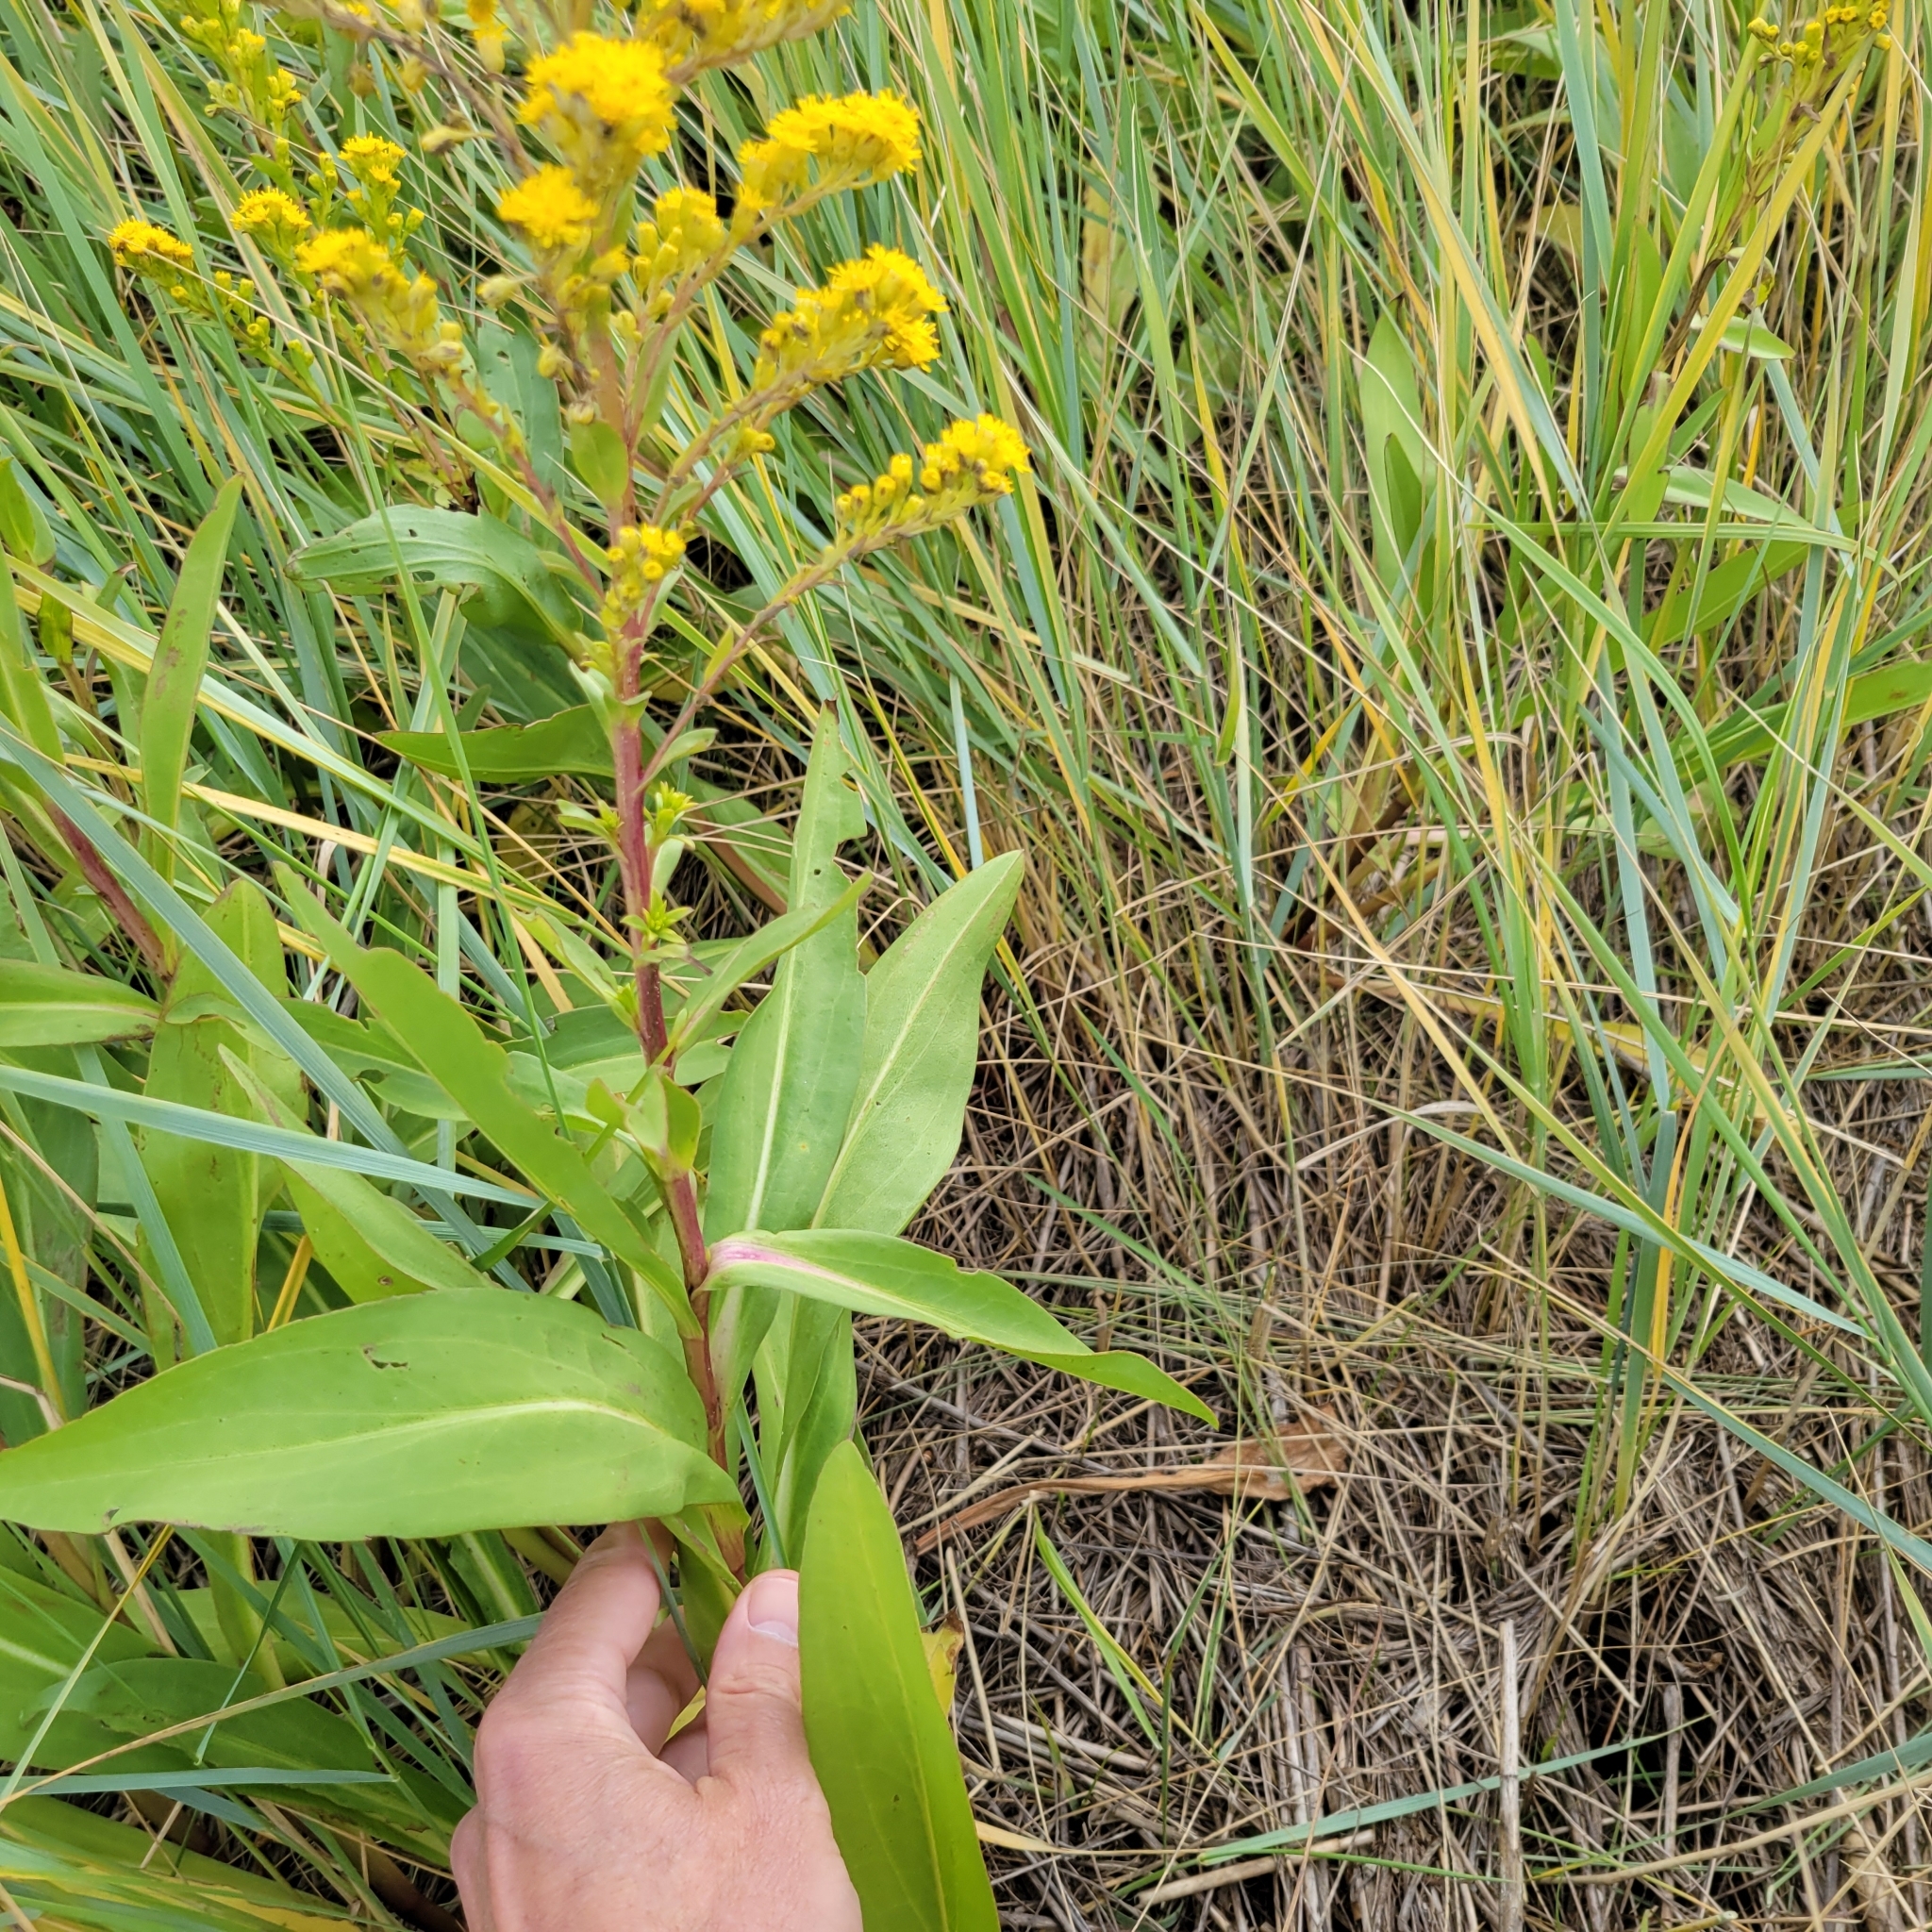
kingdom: Plantae
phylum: Tracheophyta
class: Magnoliopsida
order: Asterales
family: Asteraceae
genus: Solidago
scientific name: Solidago sempervirens
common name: Salt-marsh goldenrod
